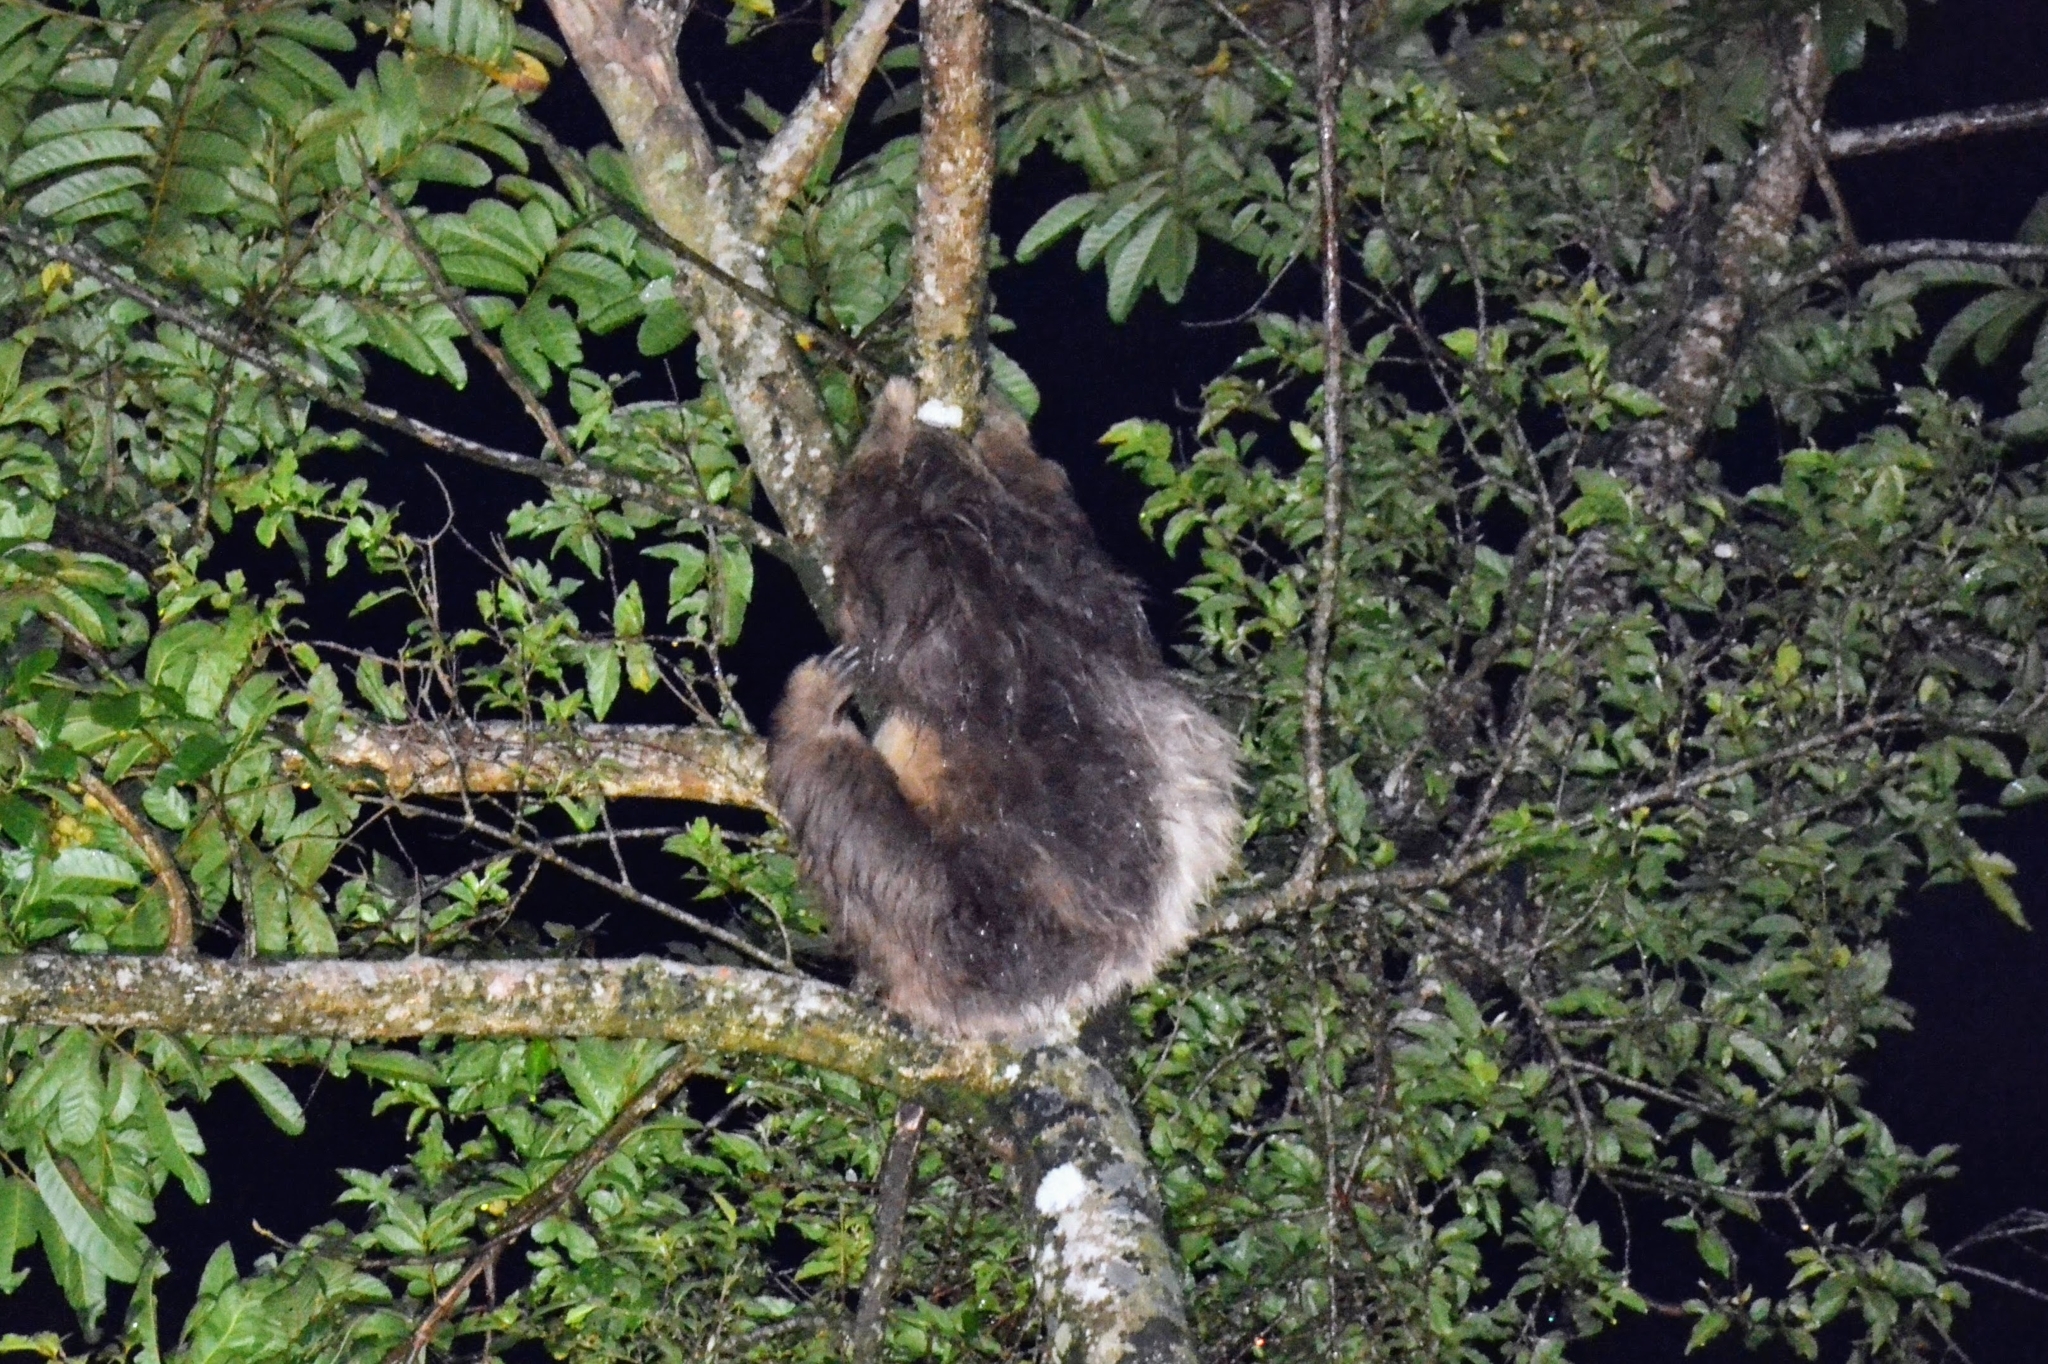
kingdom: Animalia
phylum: Chordata
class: Mammalia
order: Pilosa
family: Megalonychidae
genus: Choloepus
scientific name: Choloepus hoffmanni
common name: Hoffmann's two-toed sloth
